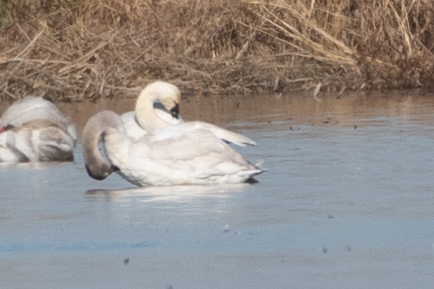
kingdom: Animalia
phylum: Chordata
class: Aves
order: Anseriformes
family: Anatidae
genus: Cygnus
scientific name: Cygnus columbianus
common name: Tundra swan
